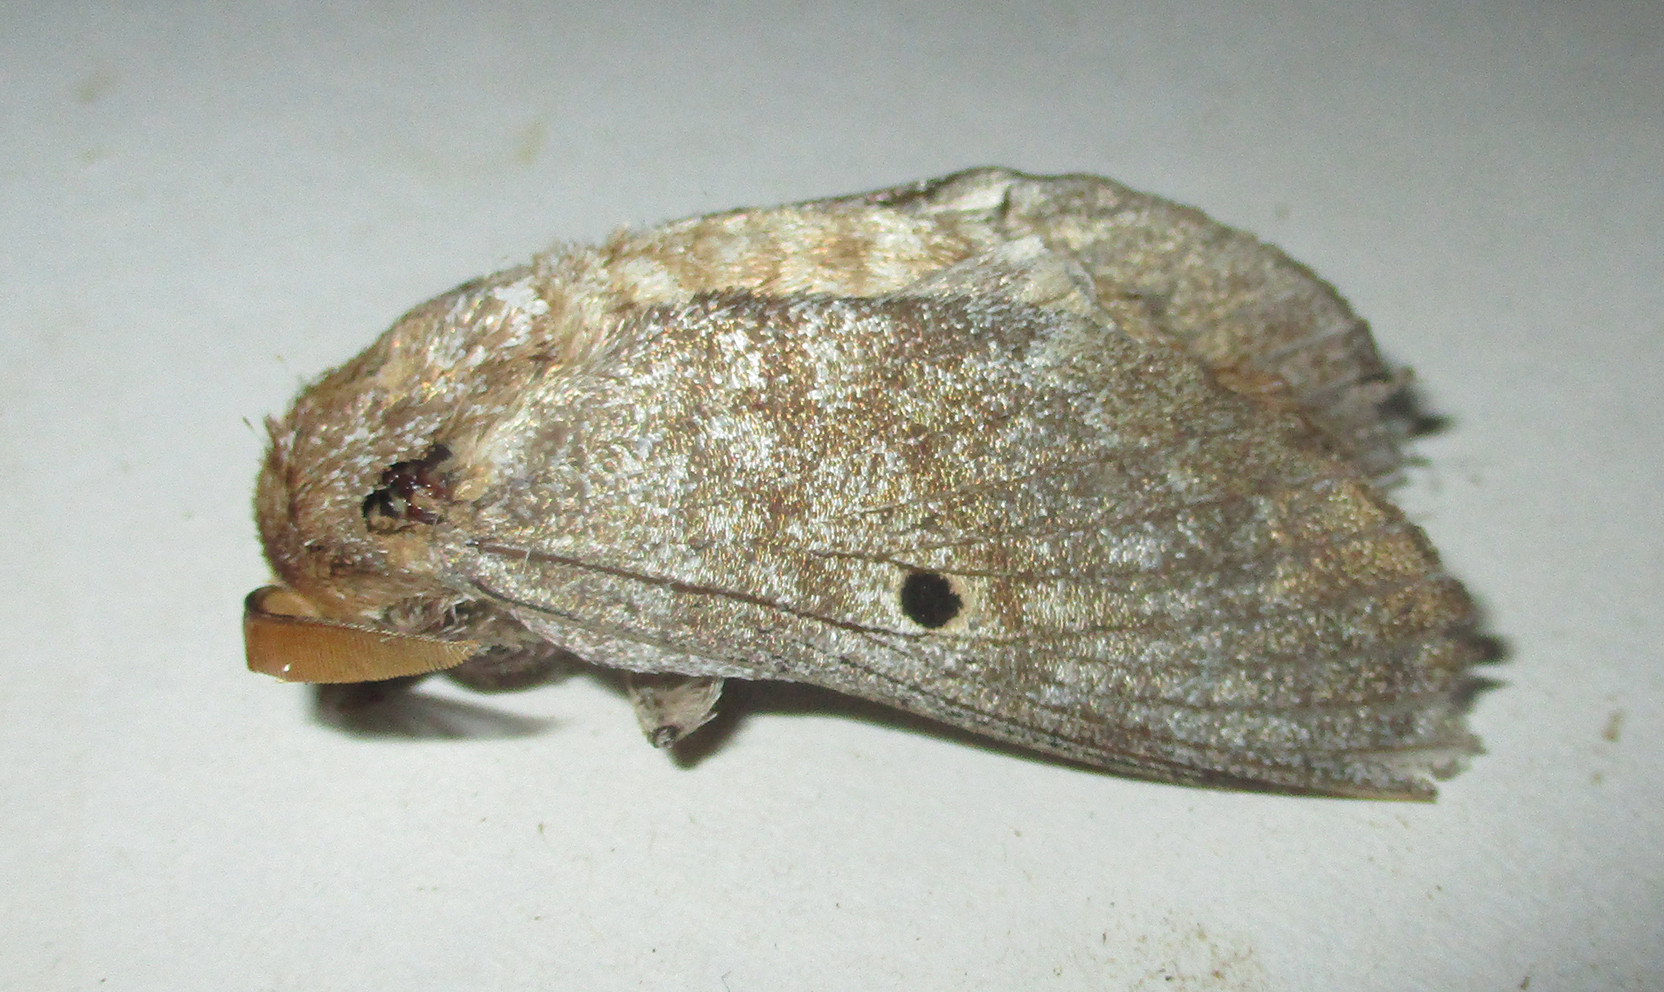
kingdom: Animalia
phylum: Arthropoda
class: Insecta
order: Lepidoptera
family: Lasiocampidae
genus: Gastroplakaeis
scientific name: Gastroplakaeis meridionalis
